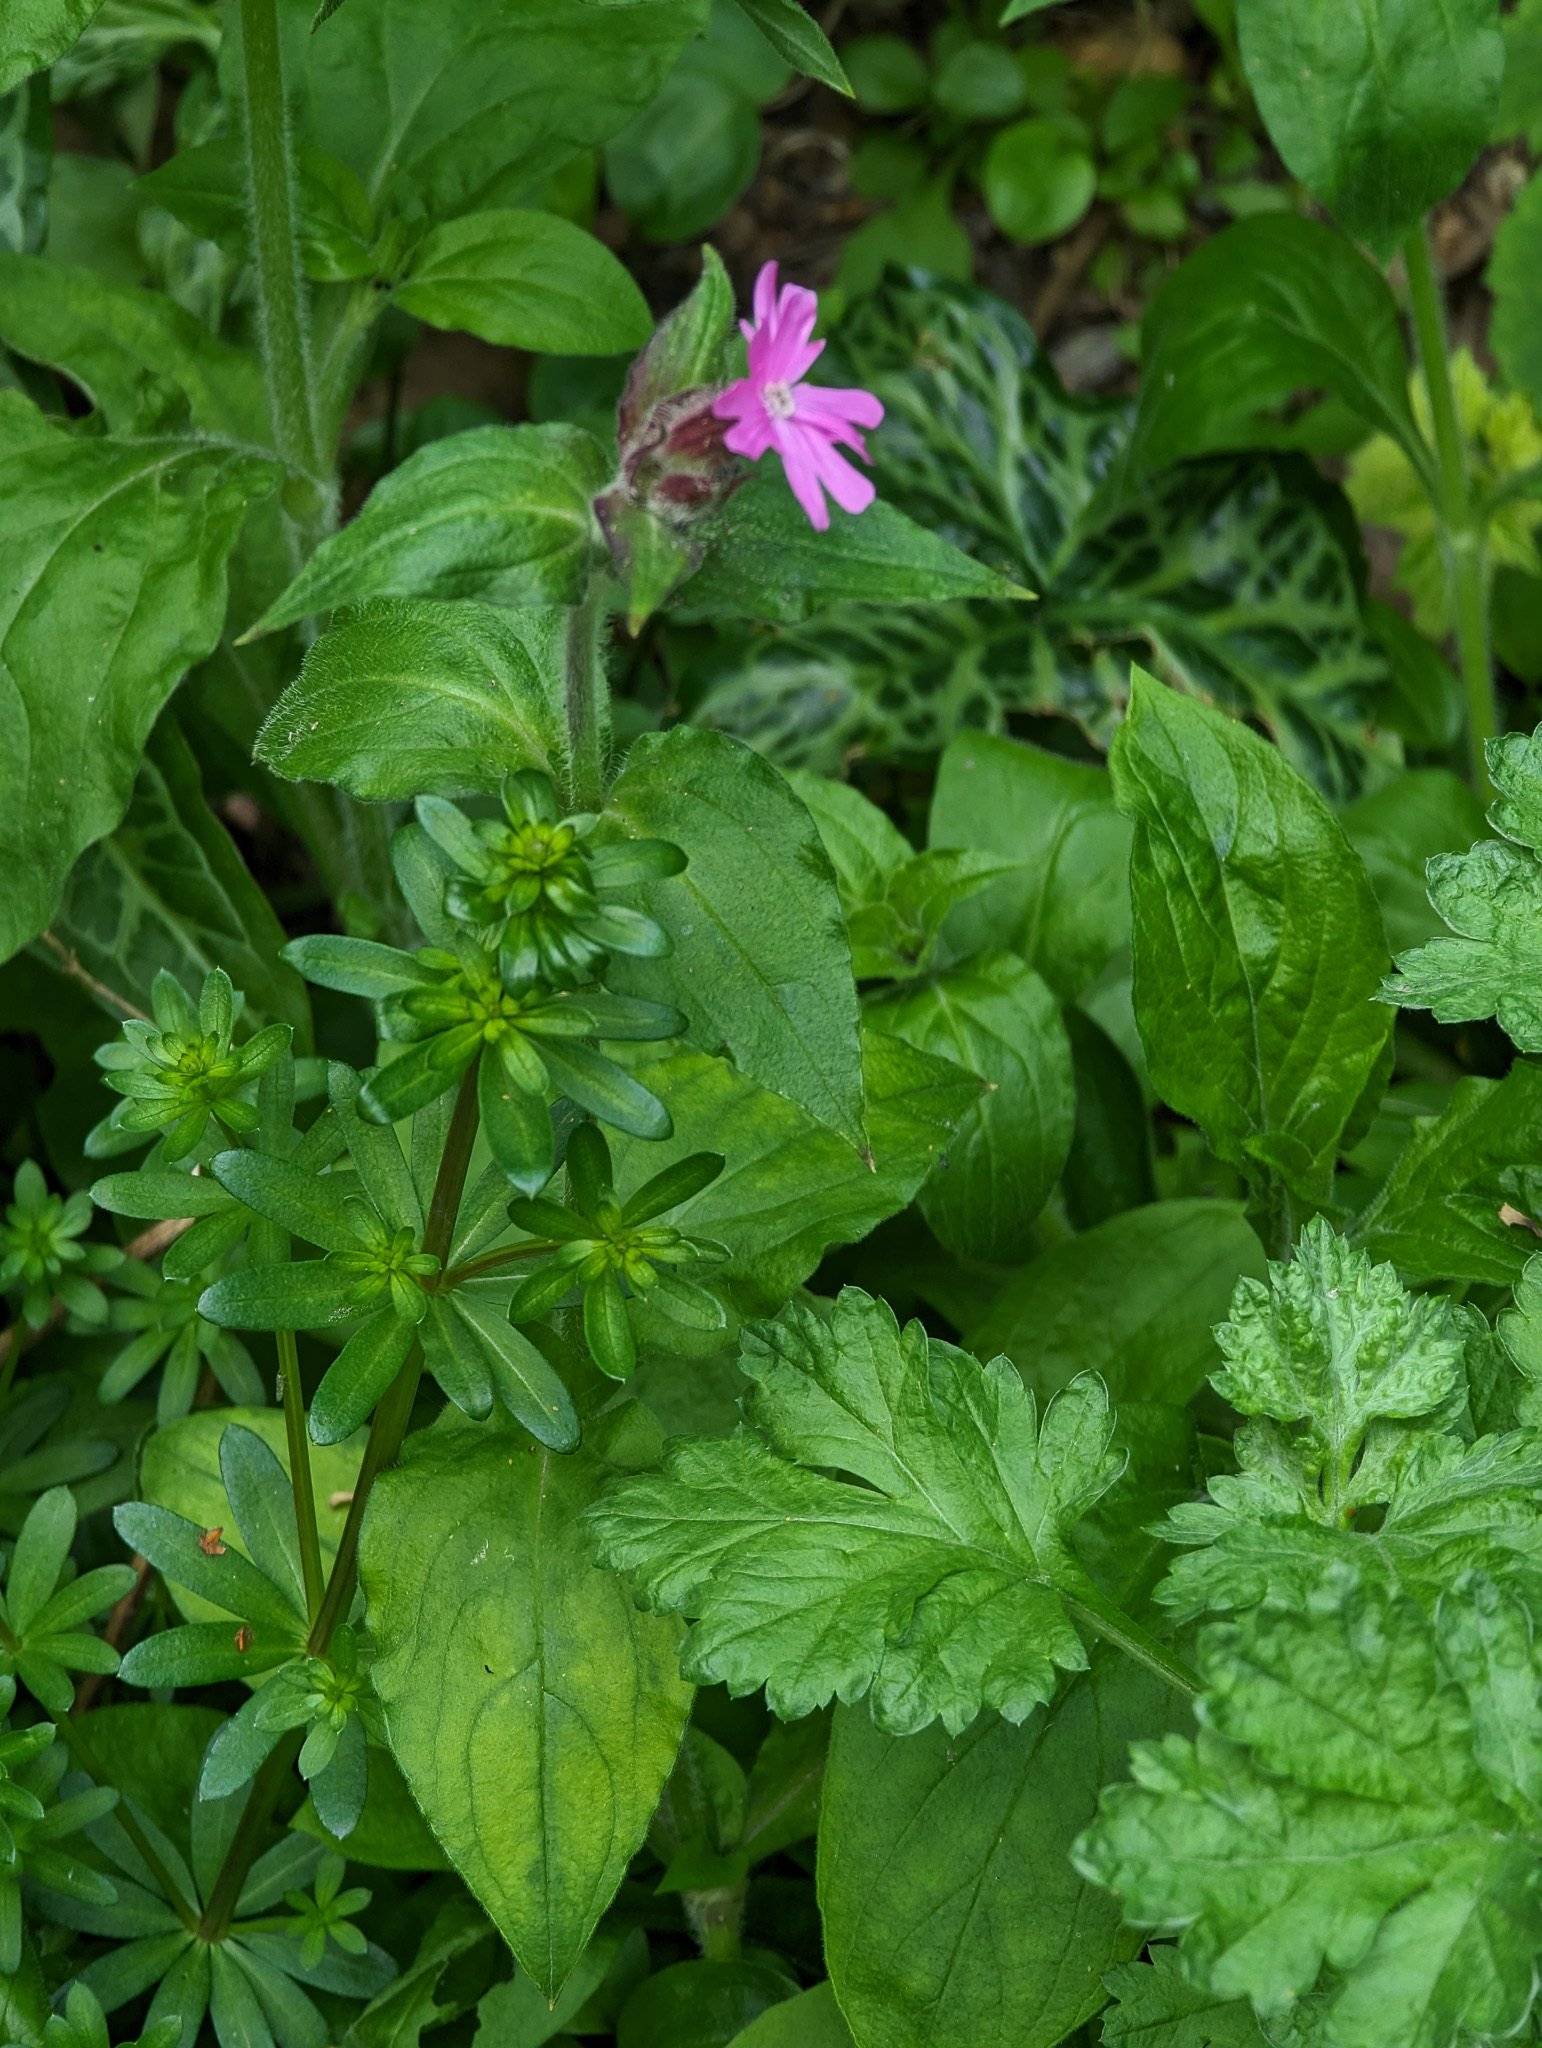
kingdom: Plantae
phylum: Tracheophyta
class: Magnoliopsida
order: Caryophyllales
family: Caryophyllaceae
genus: Silene
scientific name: Silene dioica
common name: Red campion
